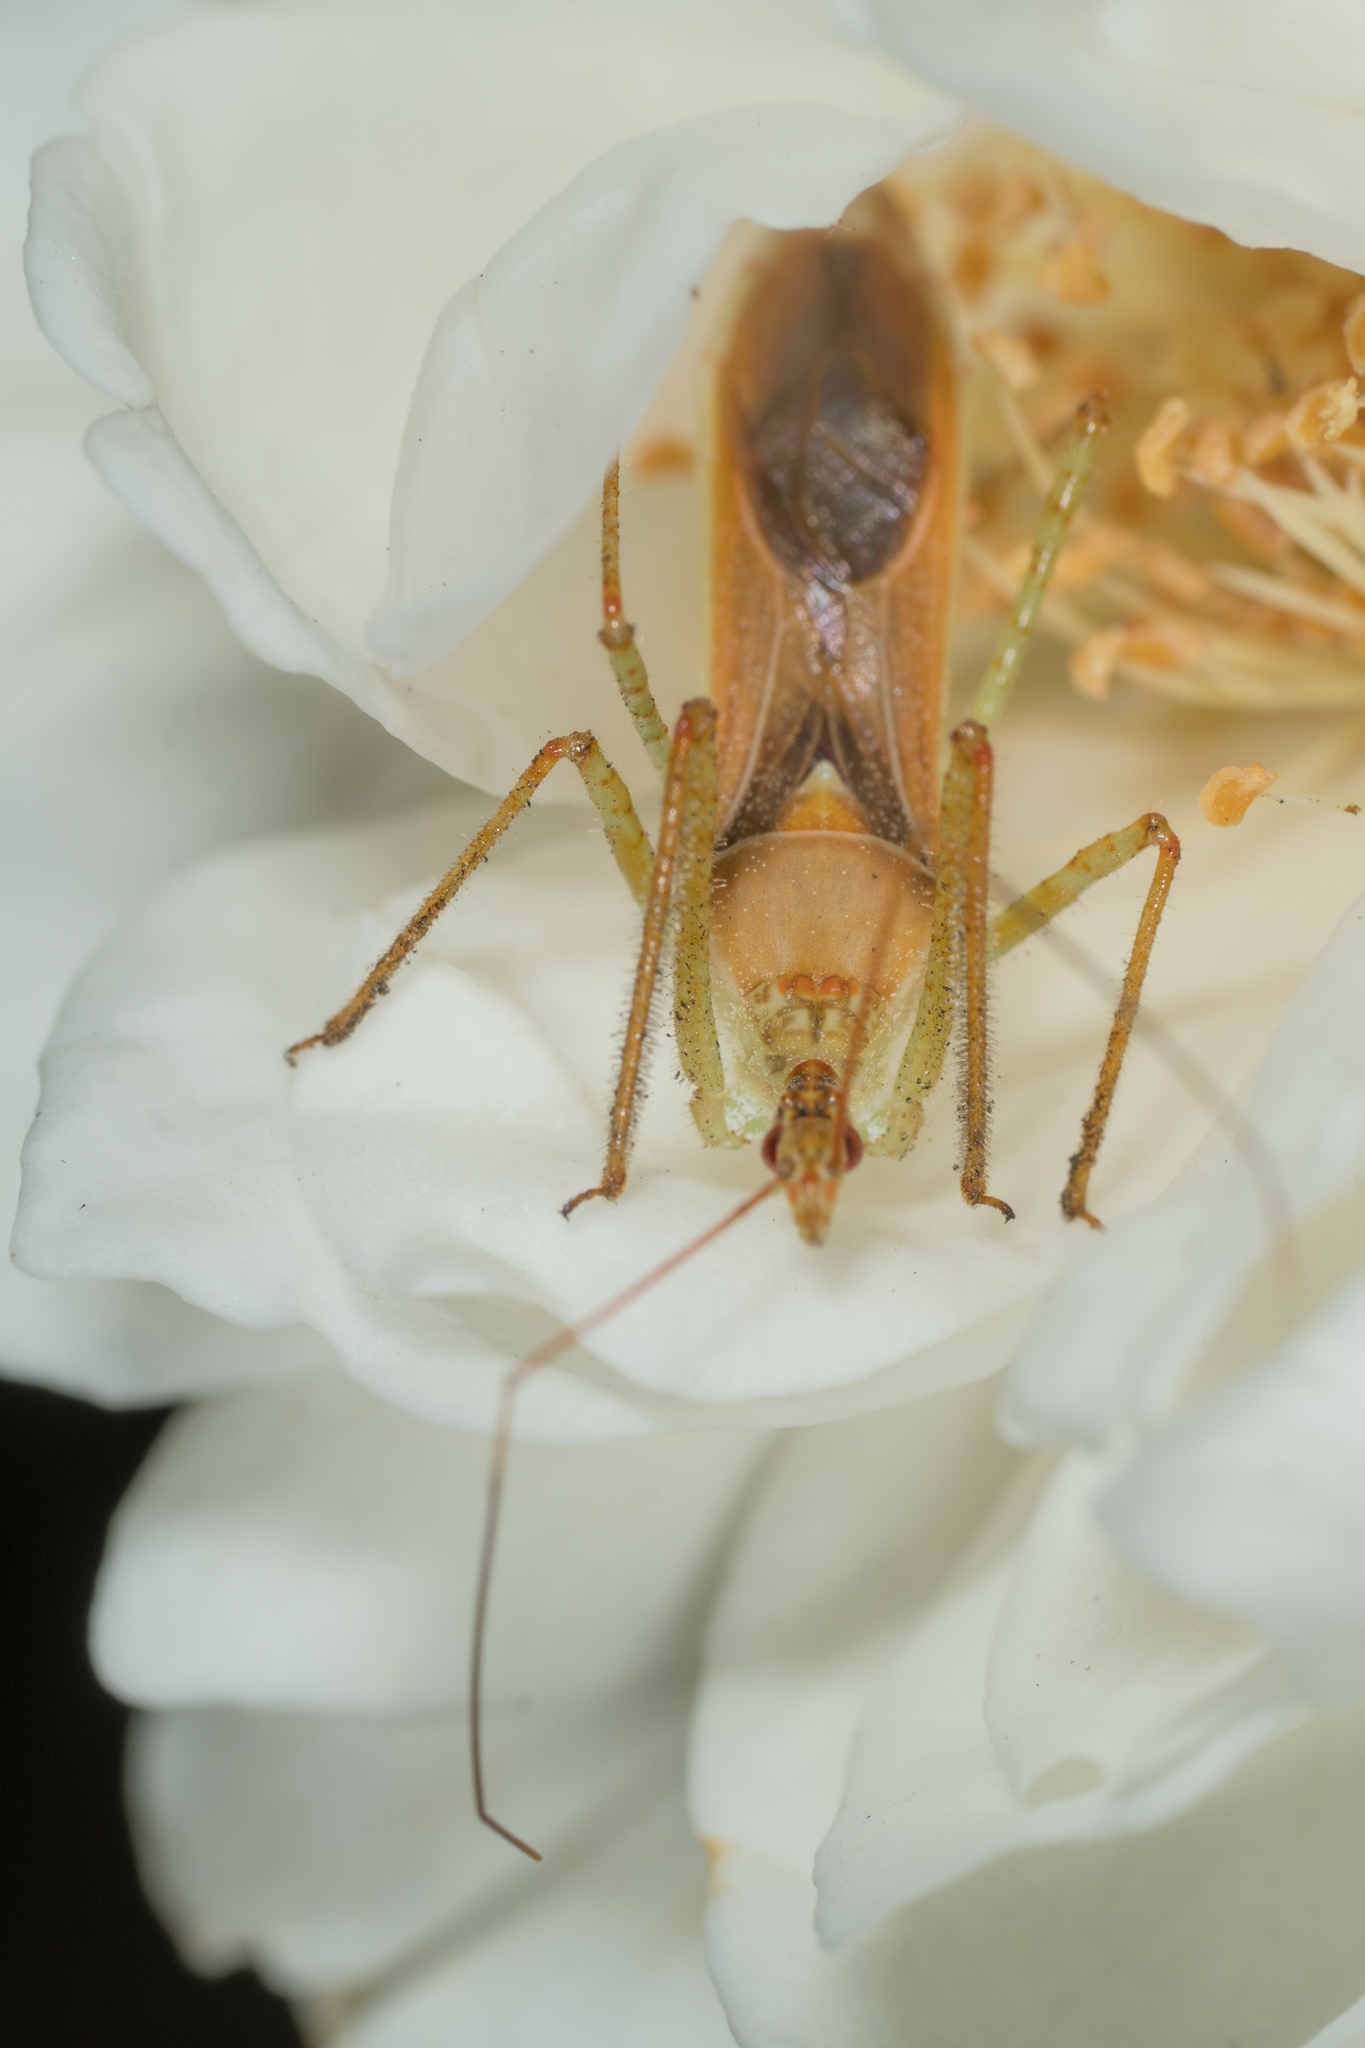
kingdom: Animalia
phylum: Arthropoda
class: Insecta
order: Hemiptera
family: Reduviidae
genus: Zelus
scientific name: Zelus renardii
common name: Assassin bug
